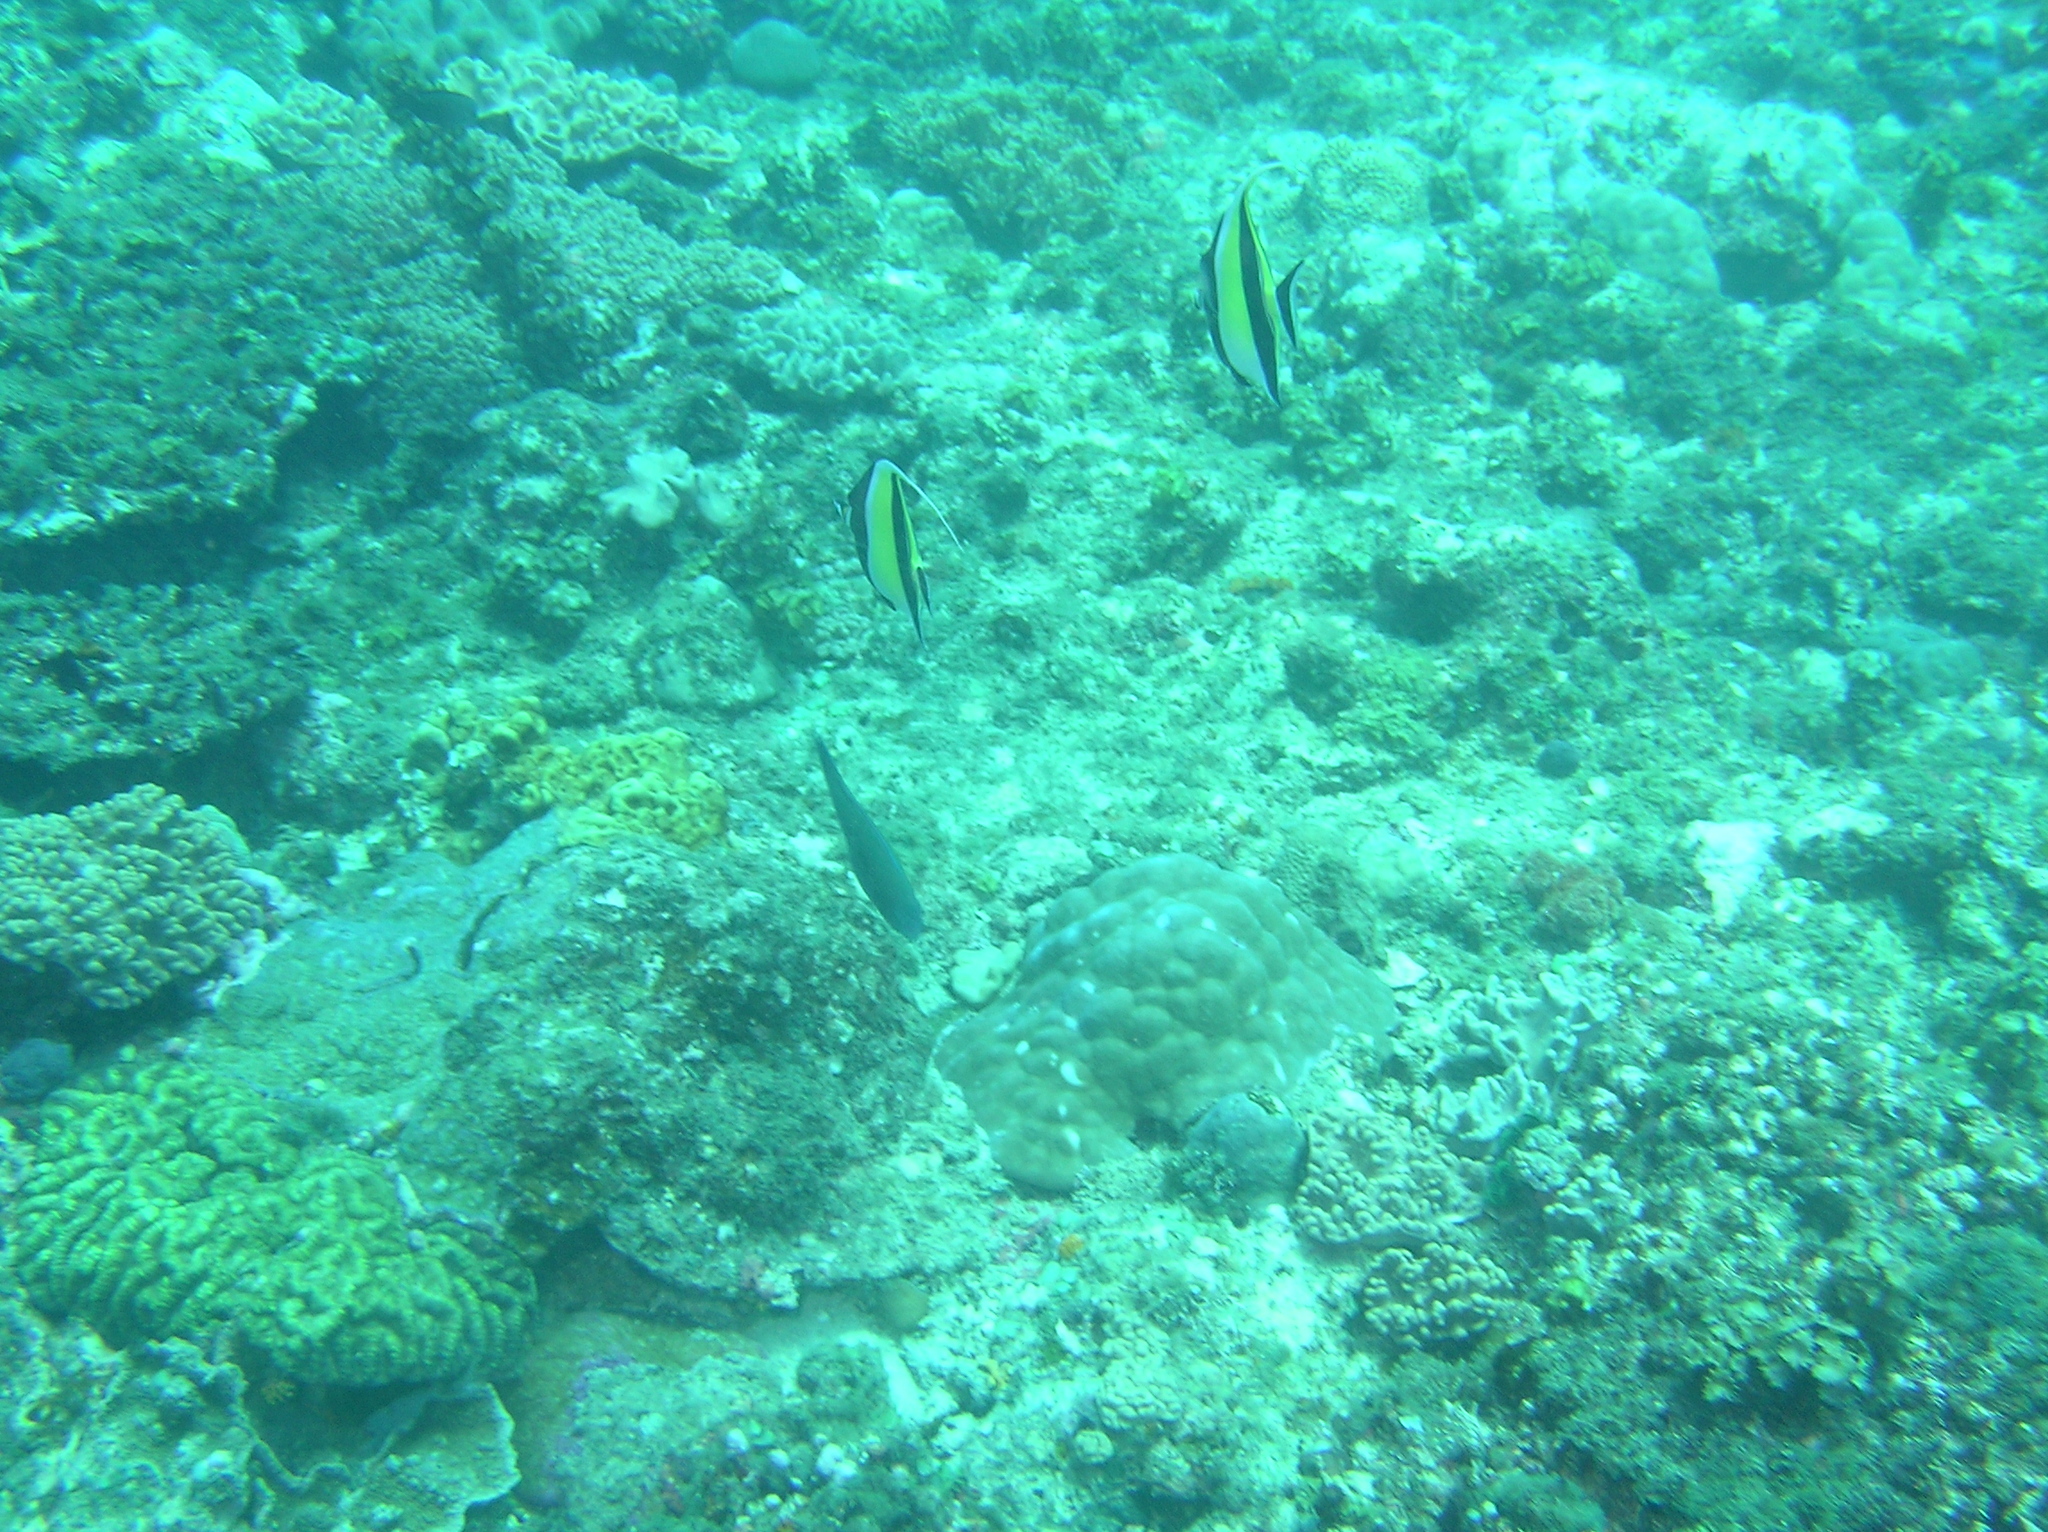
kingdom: Animalia
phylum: Chordata
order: Perciformes
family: Zanclidae
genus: Zanclus
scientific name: Zanclus cornutus
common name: Moorish idol
